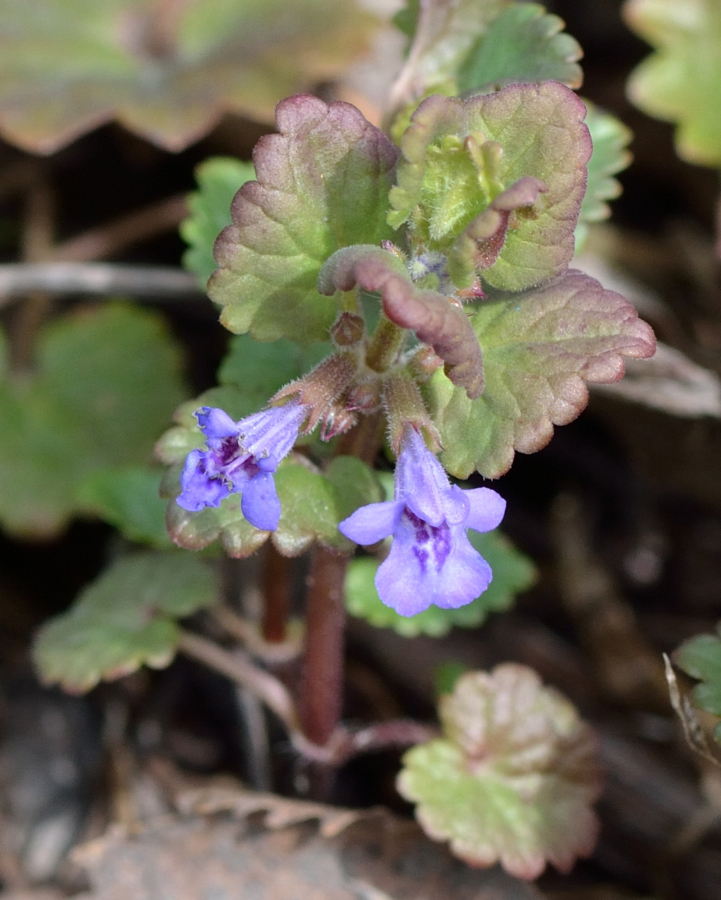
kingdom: Plantae
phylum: Tracheophyta
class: Magnoliopsida
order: Lamiales
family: Lamiaceae
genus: Glechoma
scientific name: Glechoma hederacea
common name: Ground ivy
